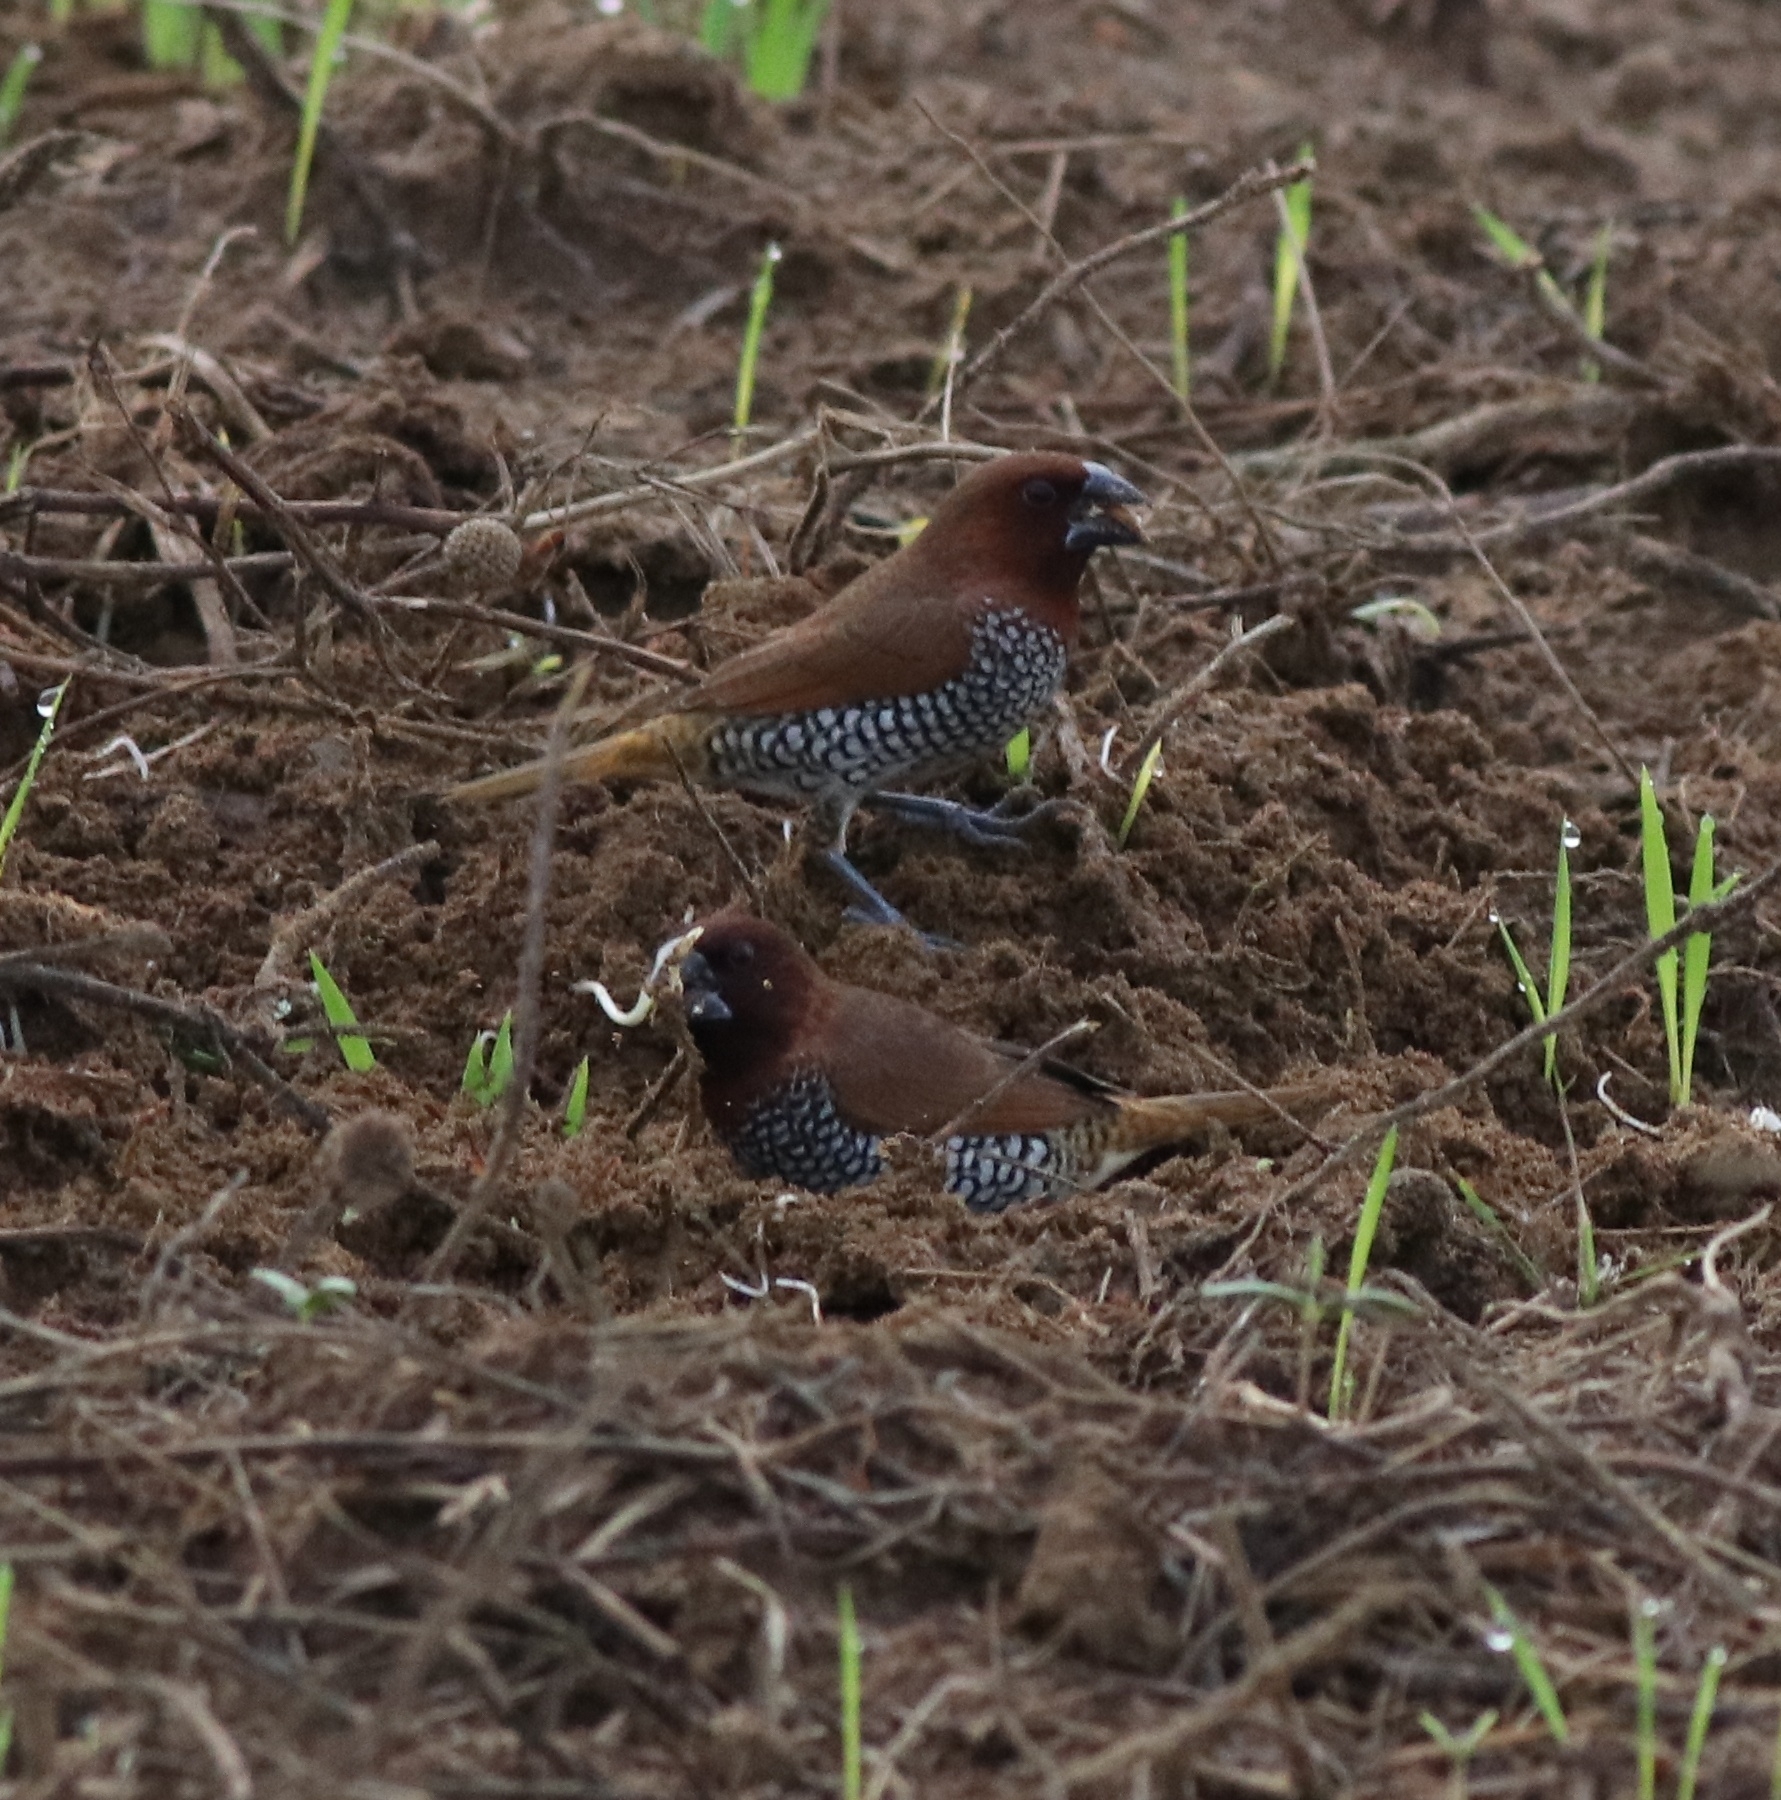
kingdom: Animalia
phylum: Chordata
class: Aves
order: Passeriformes
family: Estrildidae
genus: Lonchura
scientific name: Lonchura punctulata
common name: Scaly-breasted munia
